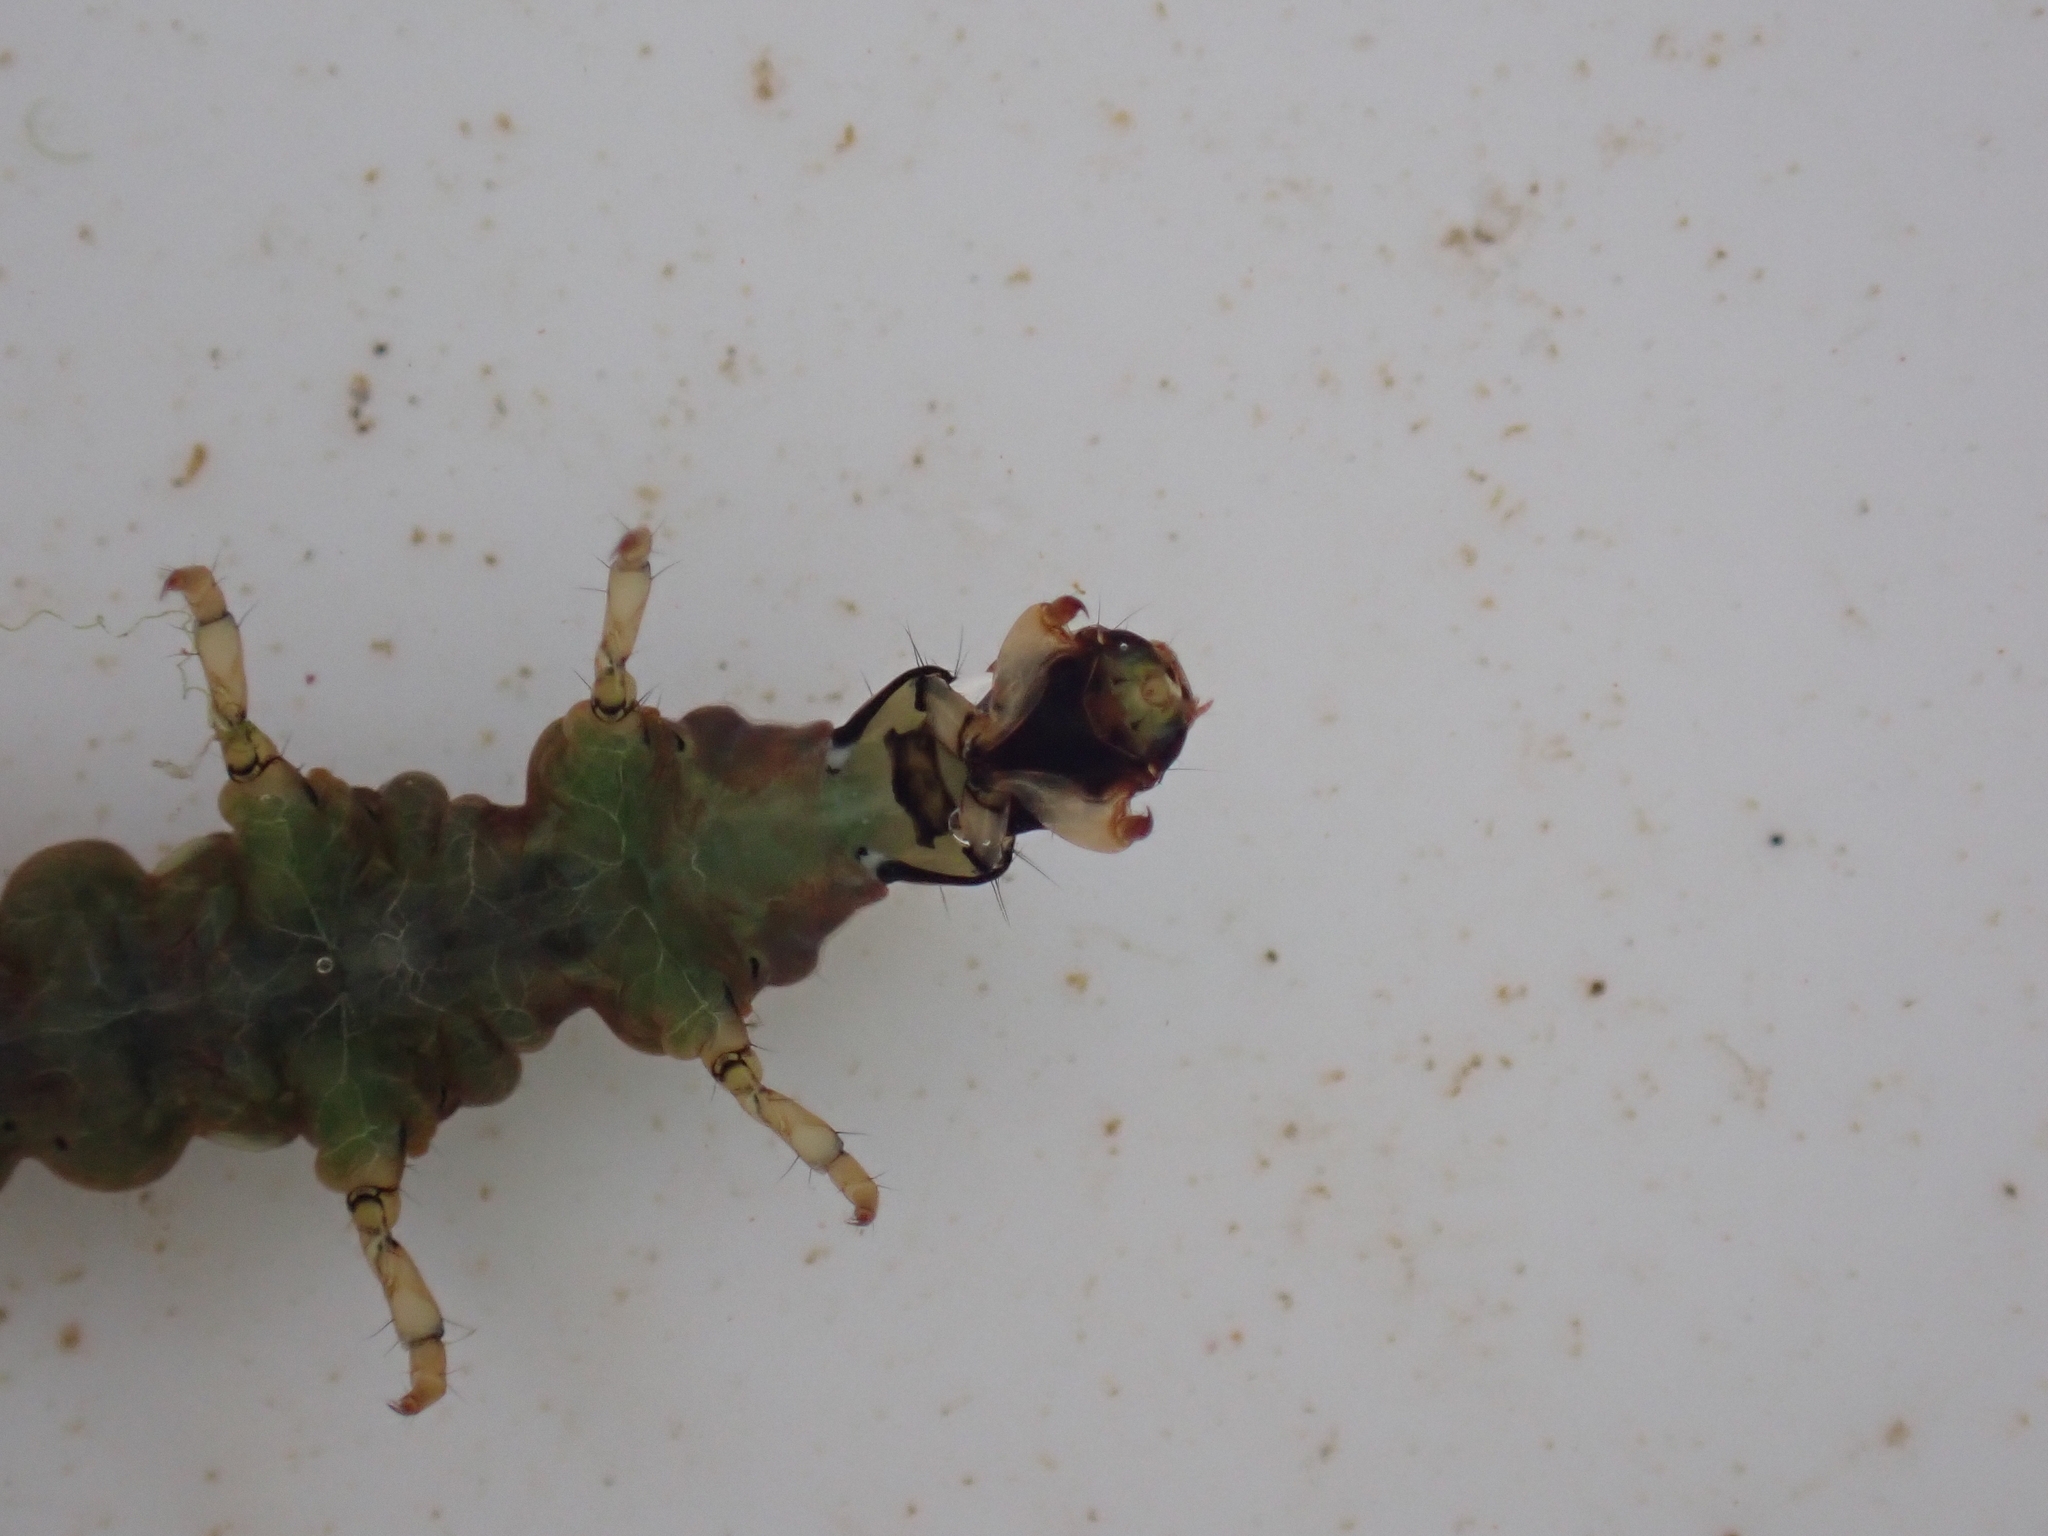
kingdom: Animalia
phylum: Arthropoda
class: Insecta
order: Trichoptera
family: Hydrobiosidae
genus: Costachorema
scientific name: Costachorema xanthopterum
